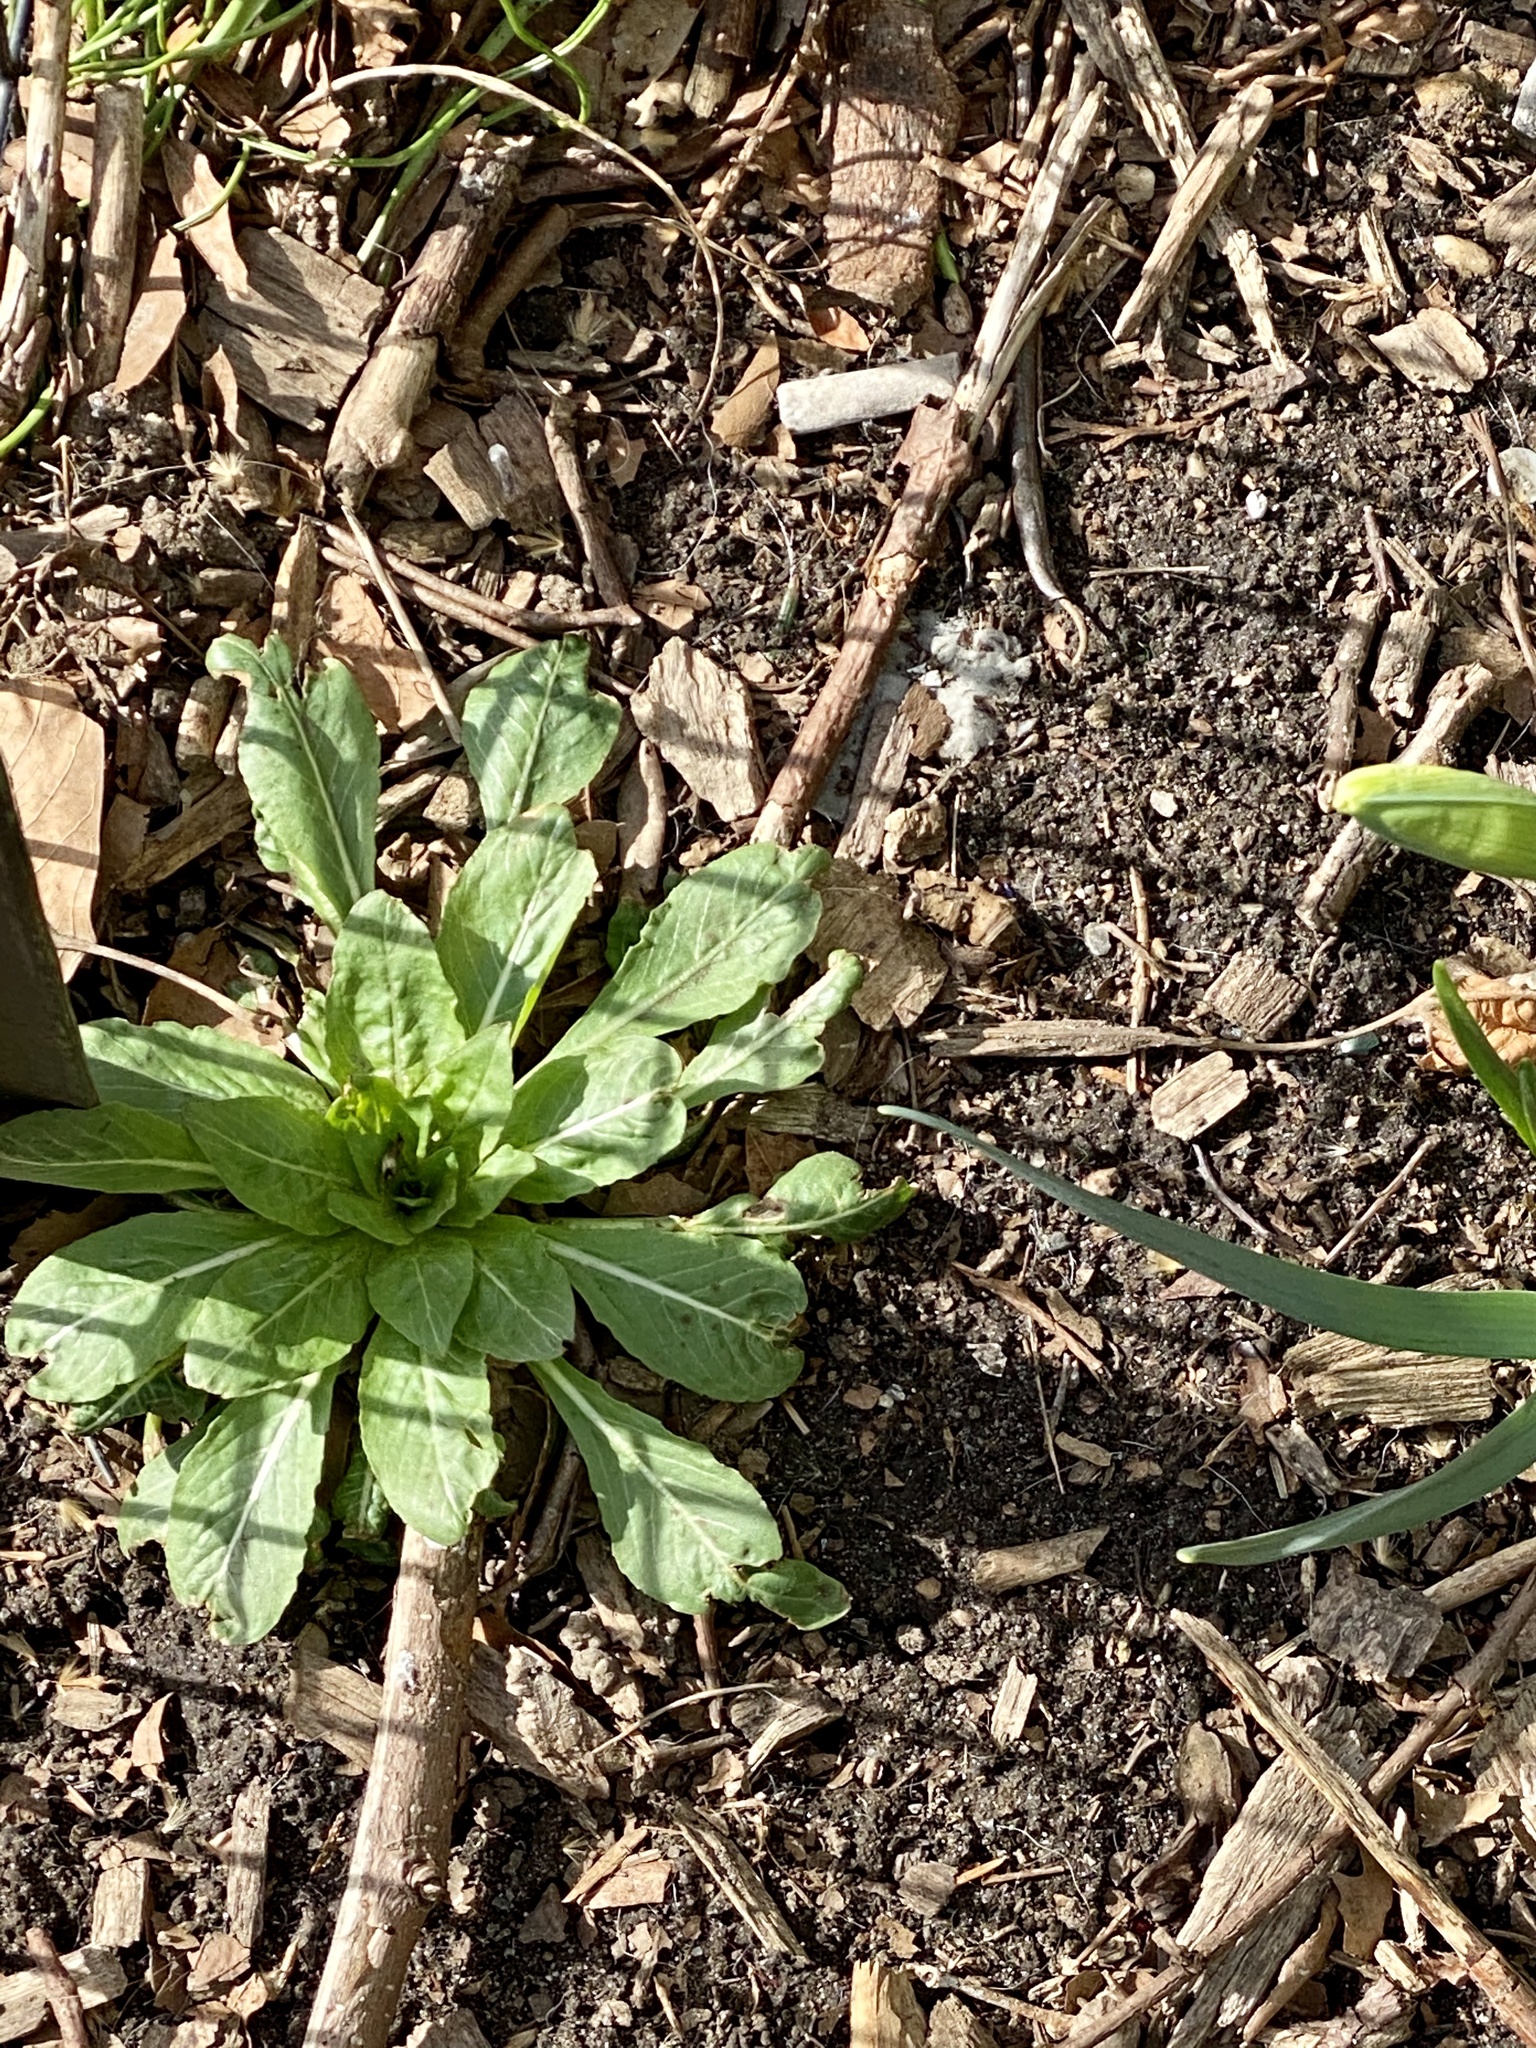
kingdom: Plantae
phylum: Tracheophyta
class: Magnoliopsida
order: Myrtales
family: Onagraceae
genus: Oenothera
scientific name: Oenothera biennis
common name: Common evening-primrose
